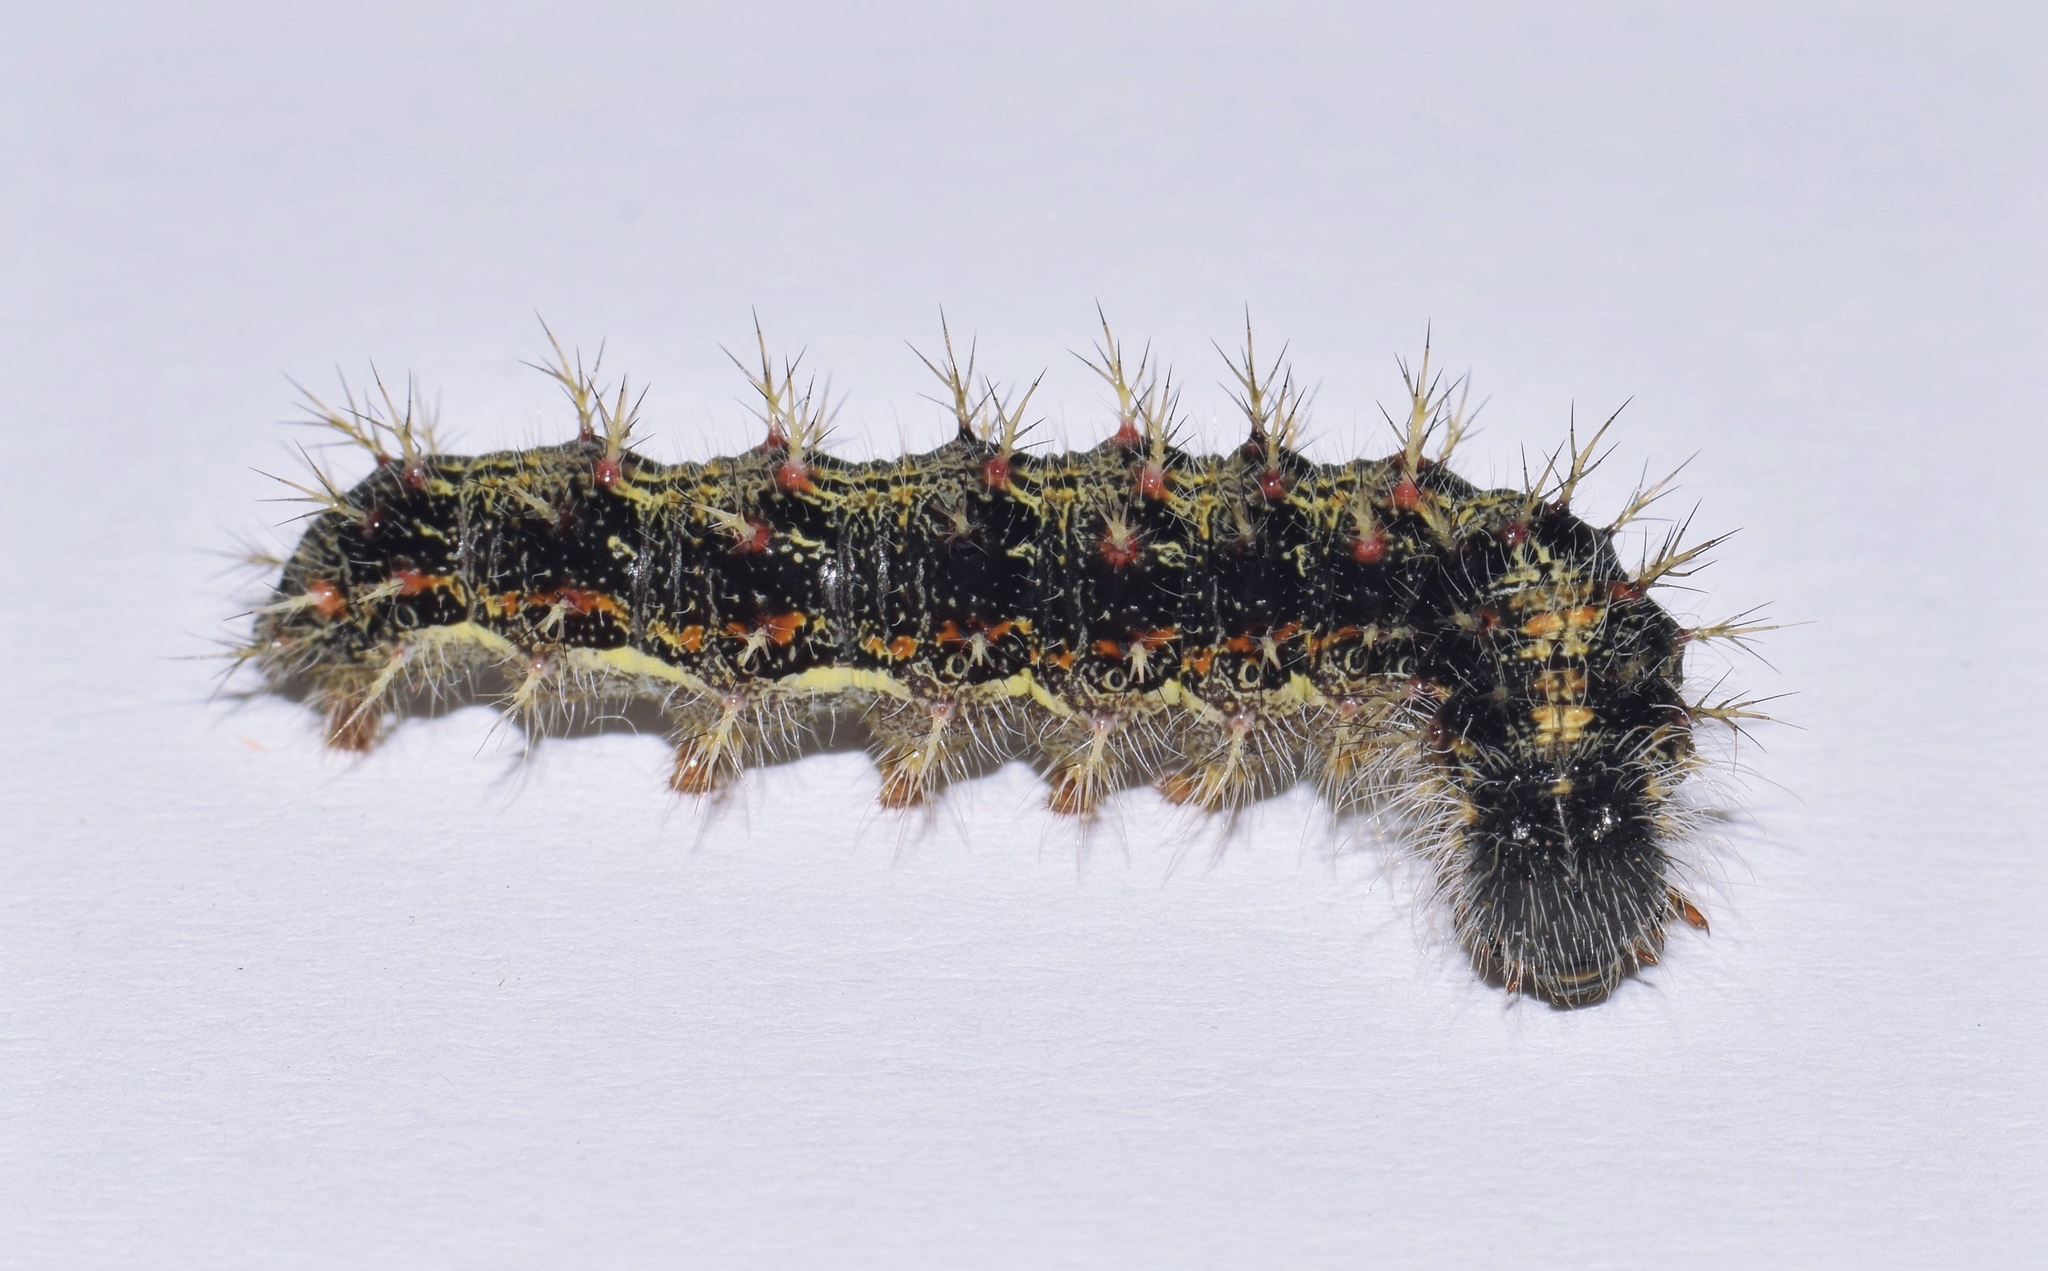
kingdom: Animalia
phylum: Arthropoda
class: Insecta
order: Lepidoptera
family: Nymphalidae
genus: Vanessa
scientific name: Vanessa cardui
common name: Painted lady
